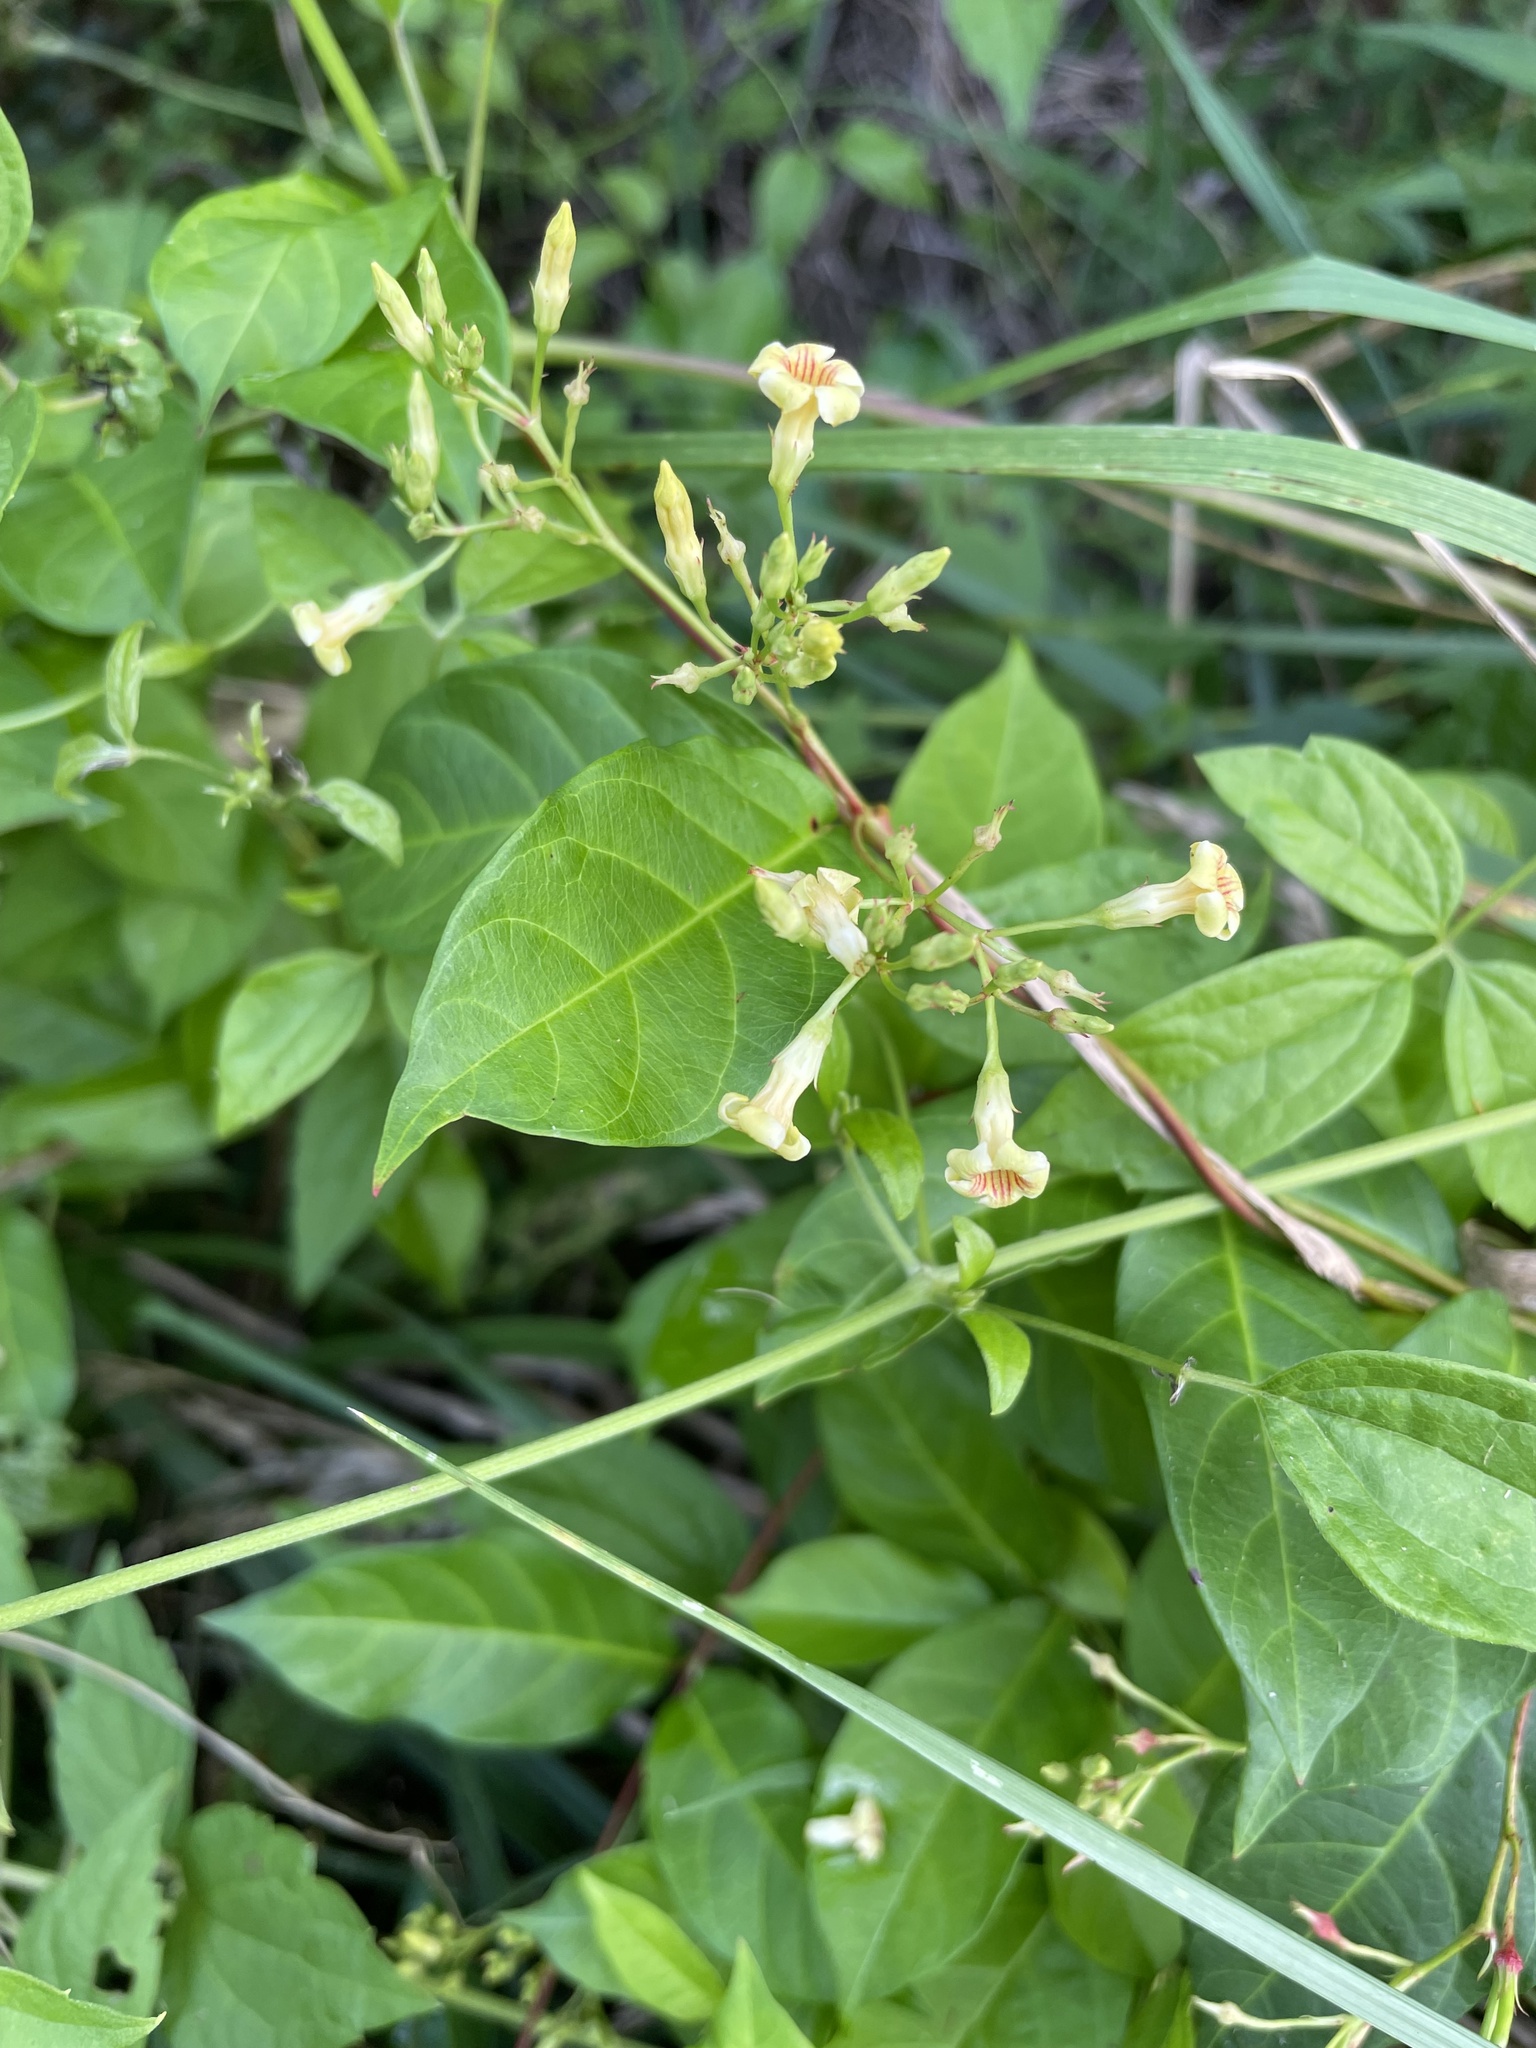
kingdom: Plantae
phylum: Tracheophyta
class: Magnoliopsida
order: Gentianales
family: Apocynaceae
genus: Thyrsanthella
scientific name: Thyrsanthella difformis
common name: Climbing dogbane
